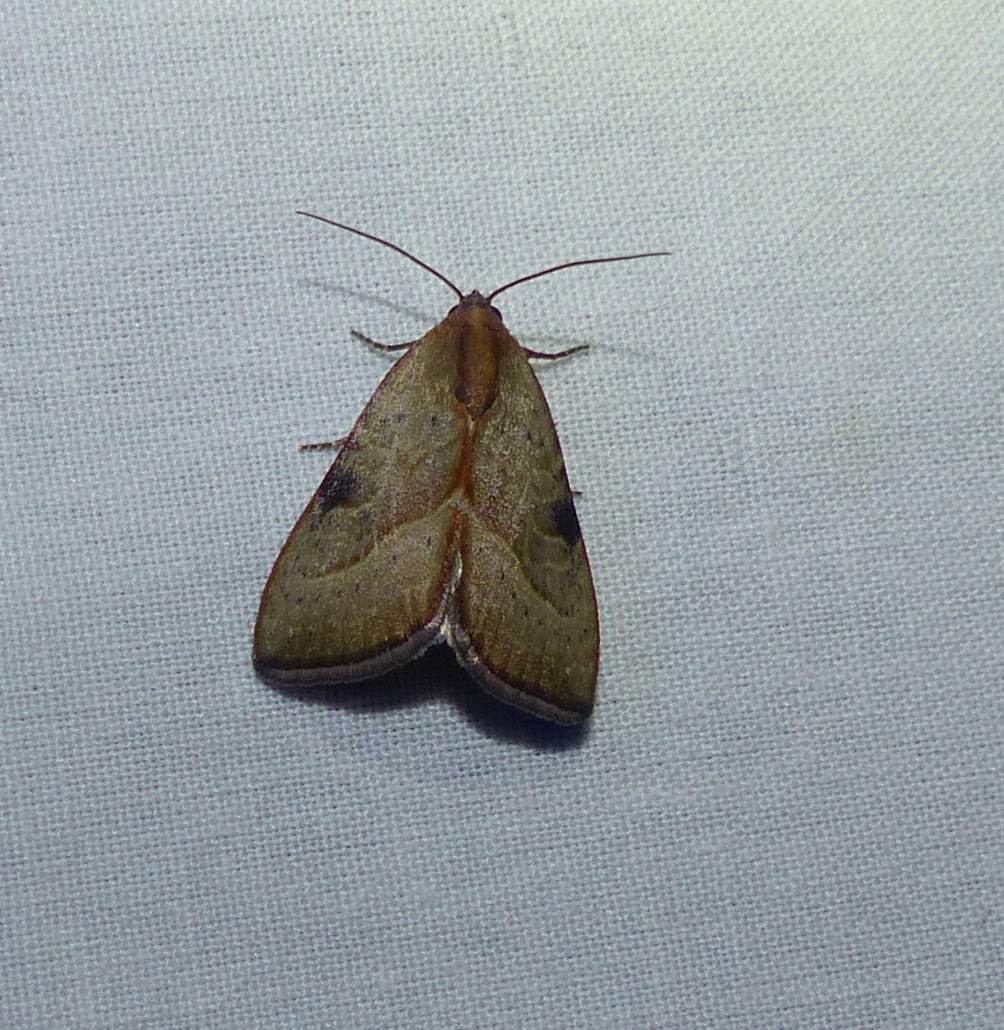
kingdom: Animalia
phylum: Arthropoda
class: Insecta
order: Lepidoptera
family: Noctuidae
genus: Galgula
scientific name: Galgula partita
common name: Wedgeling
